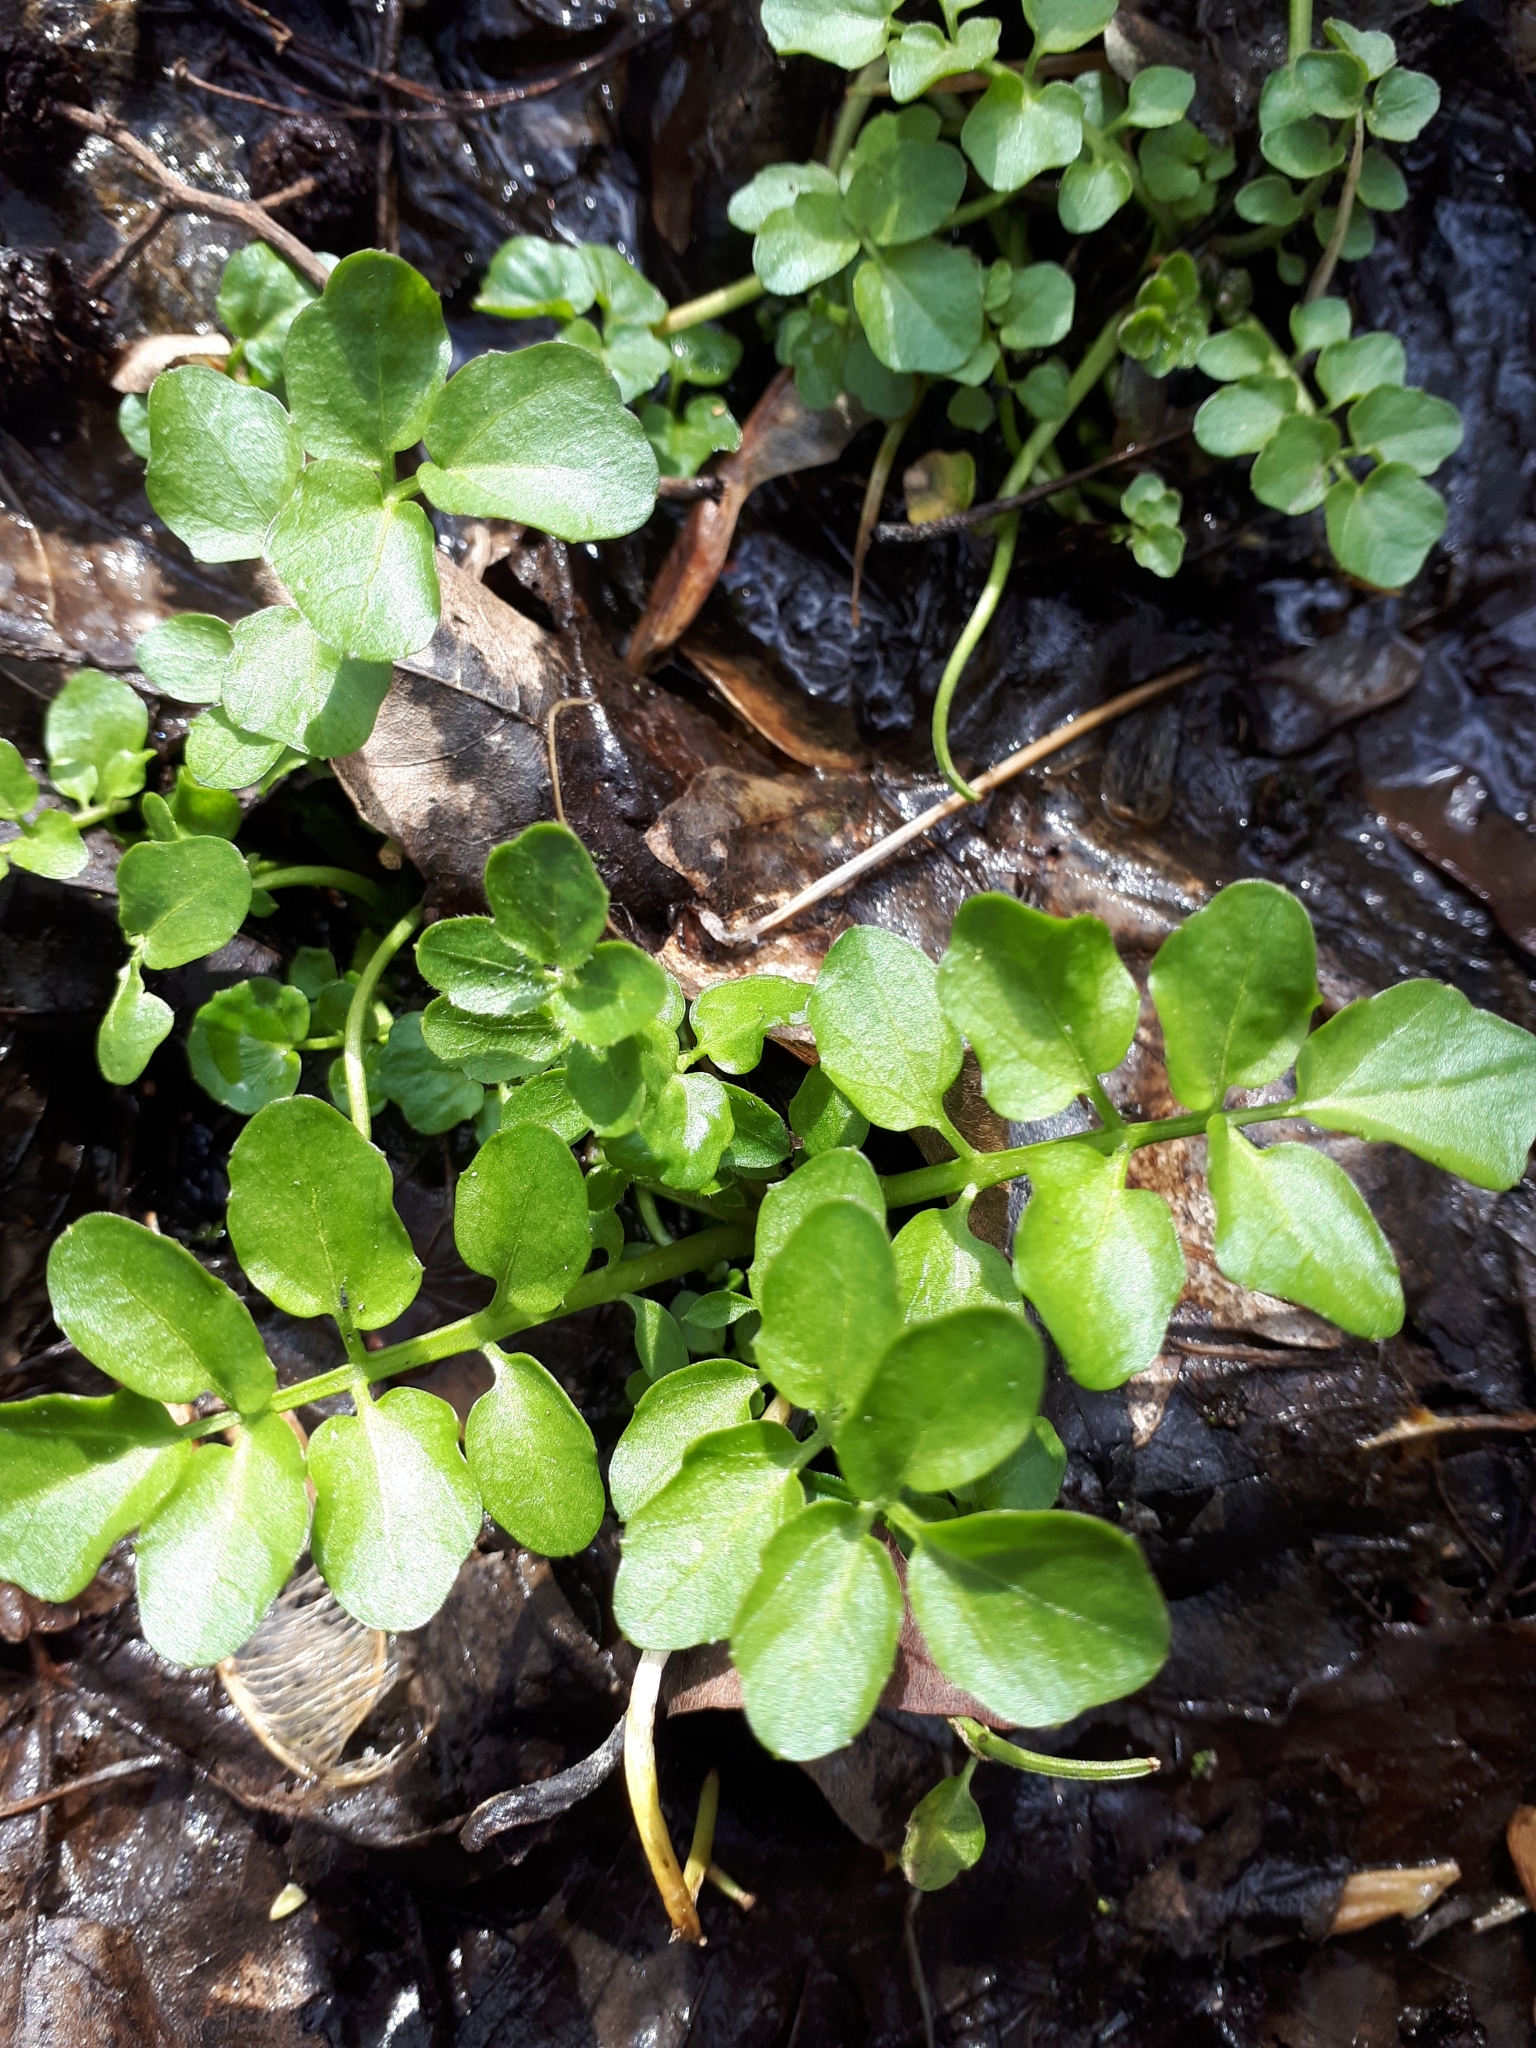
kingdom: Plantae
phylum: Tracheophyta
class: Magnoliopsida
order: Brassicales
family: Brassicaceae
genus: Cardamine
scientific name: Cardamine amara
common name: Large bitter-cress
